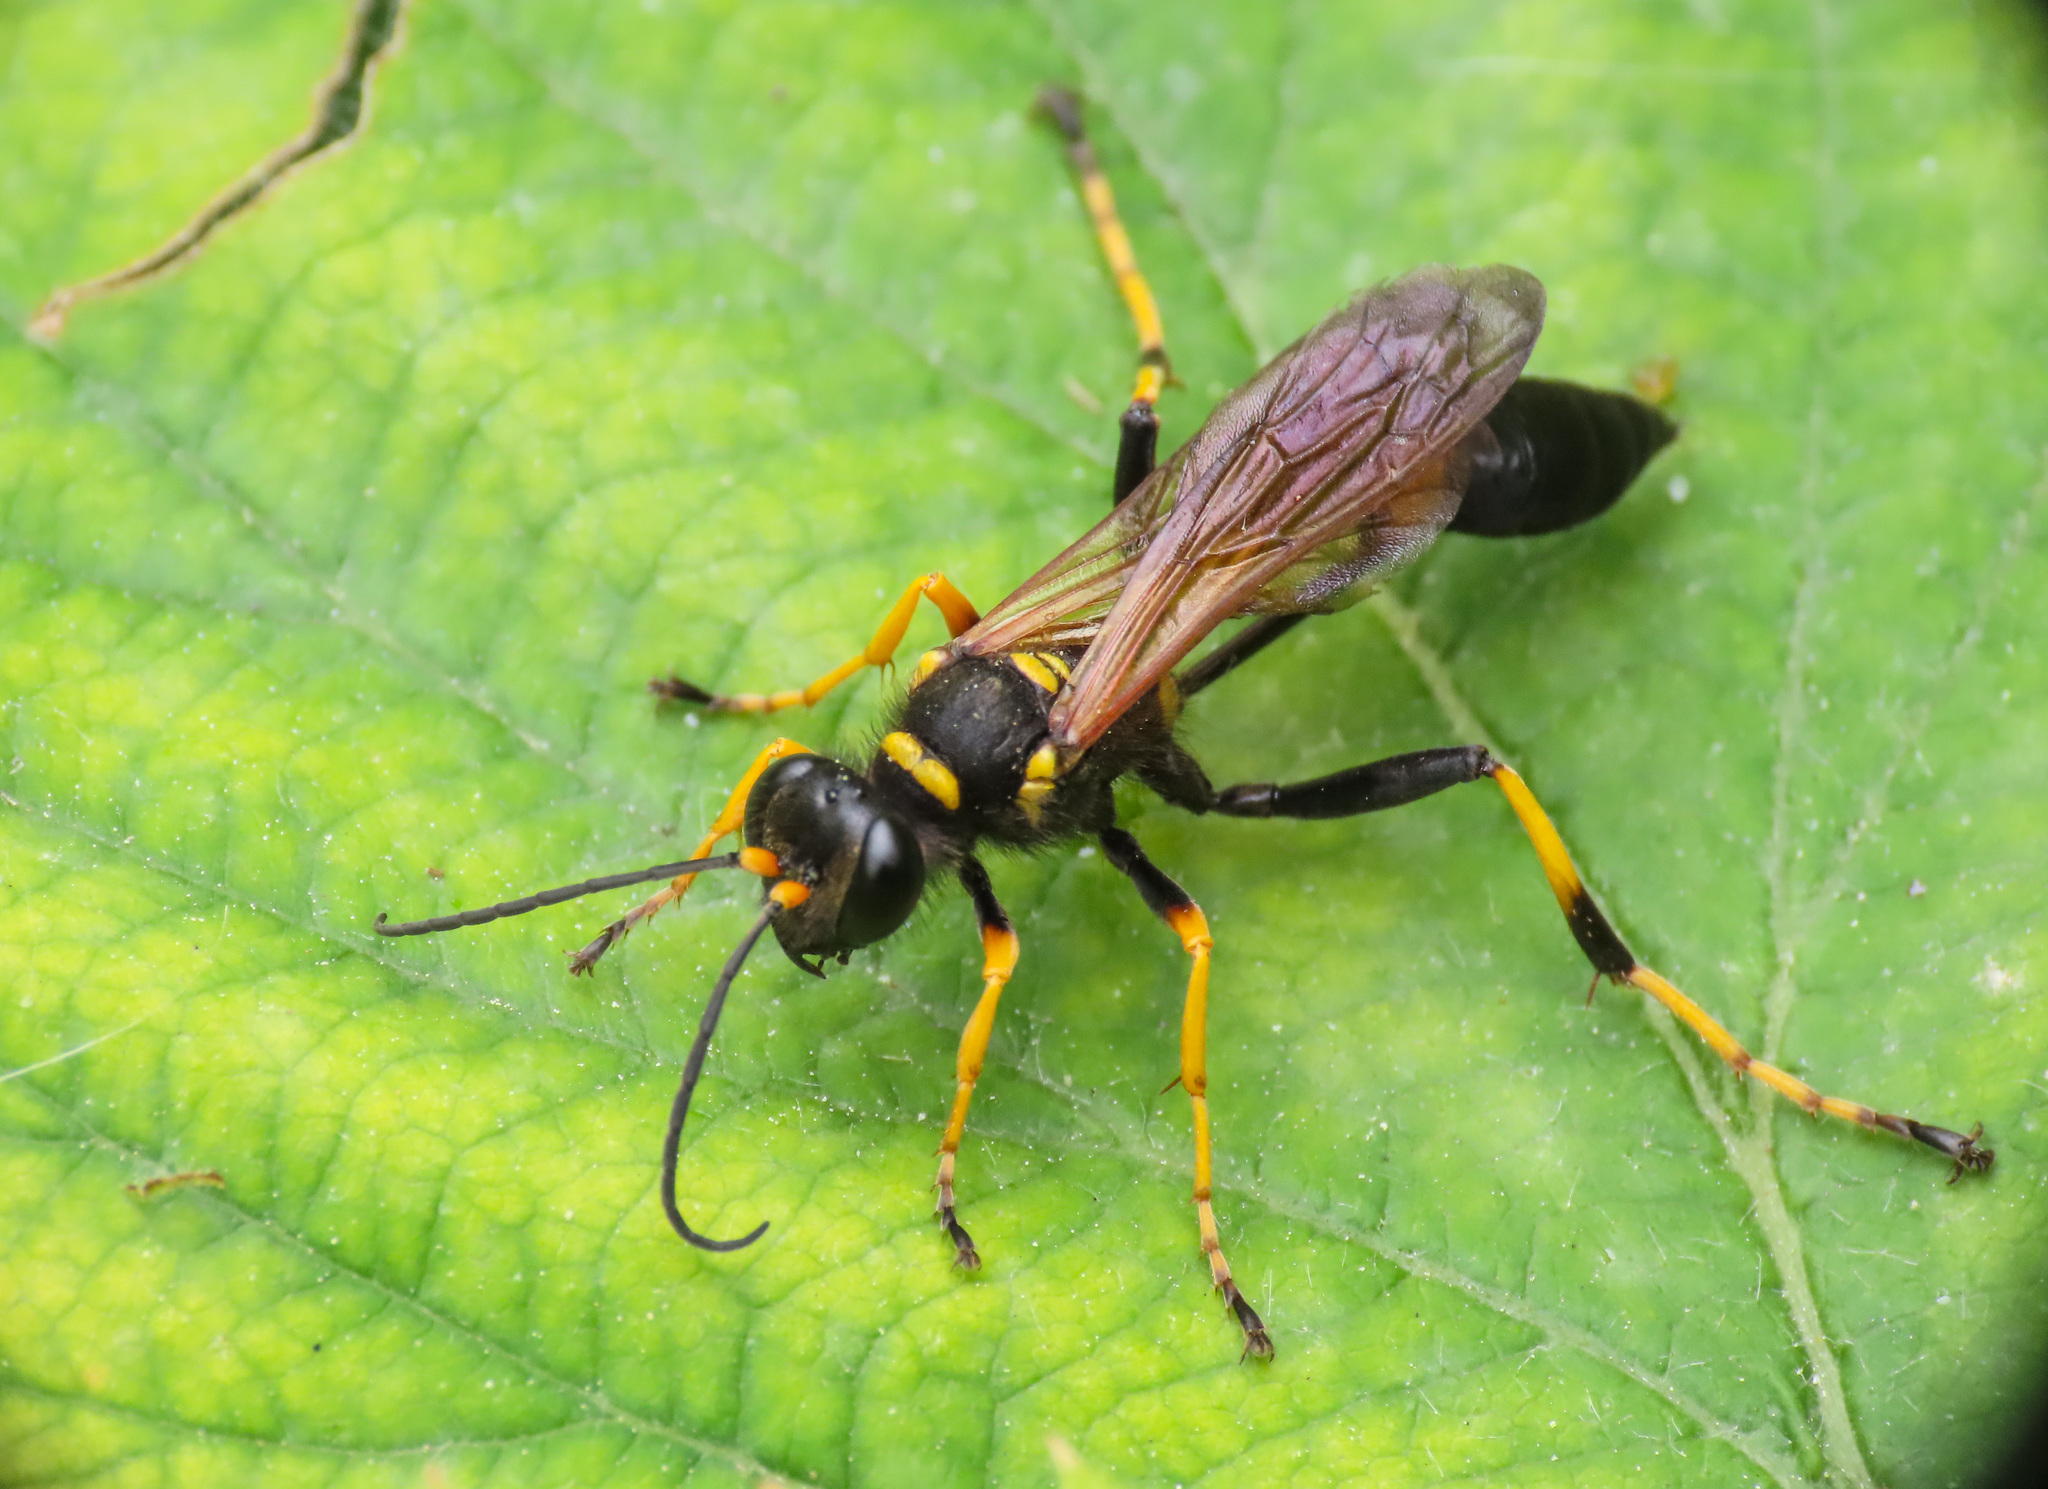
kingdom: Animalia
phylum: Arthropoda
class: Insecta
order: Hymenoptera
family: Sphecidae
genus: Sceliphron
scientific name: Sceliphron caementarium
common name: Mud dauber
